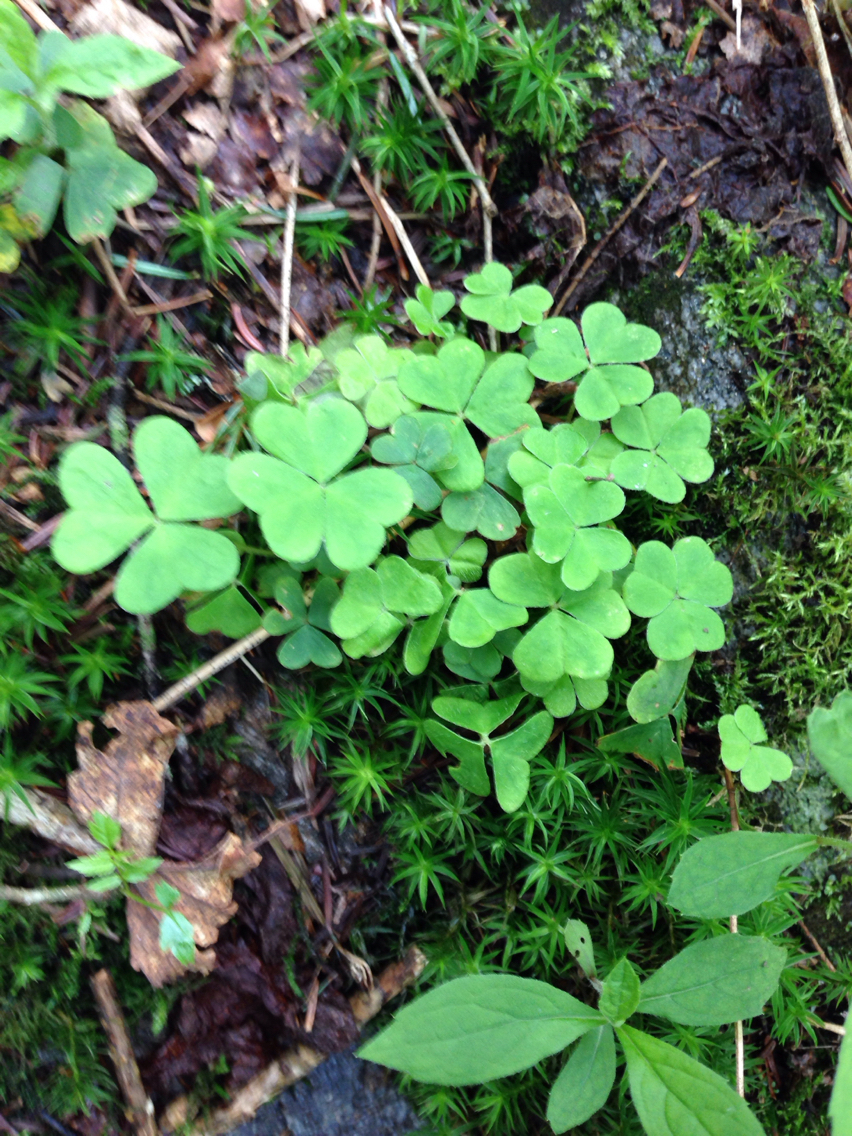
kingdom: Plantae
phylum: Tracheophyta
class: Magnoliopsida
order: Oxalidales
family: Oxalidaceae
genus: Oxalis
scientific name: Oxalis montana
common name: American wood-sorrel
